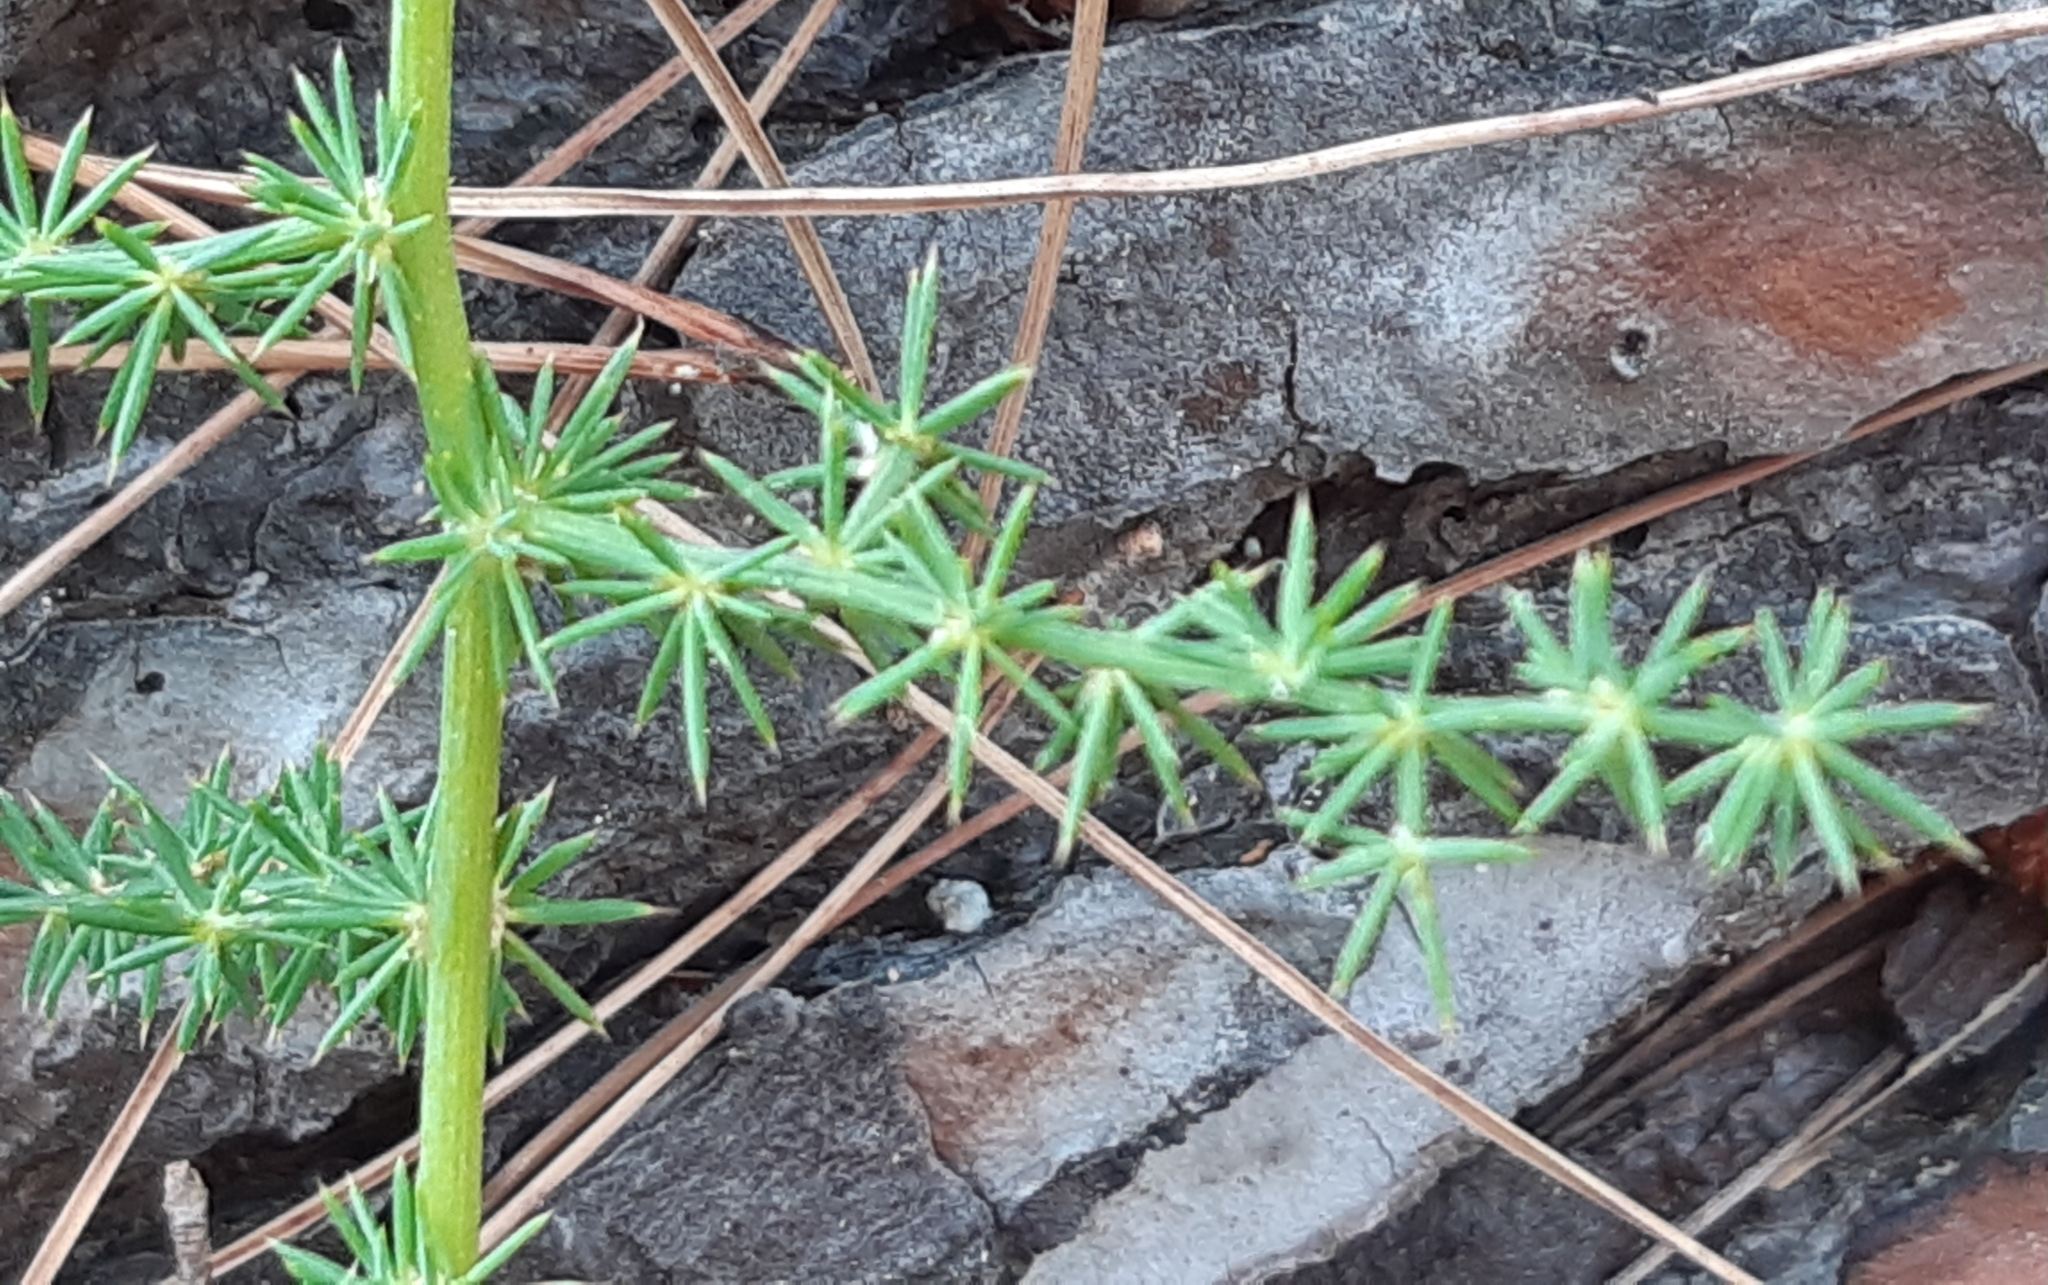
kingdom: Plantae
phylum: Tracheophyta
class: Liliopsida
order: Asparagales
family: Asparagaceae
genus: Asparagus
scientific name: Asparagus acutifolius
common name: Wild asparagus
